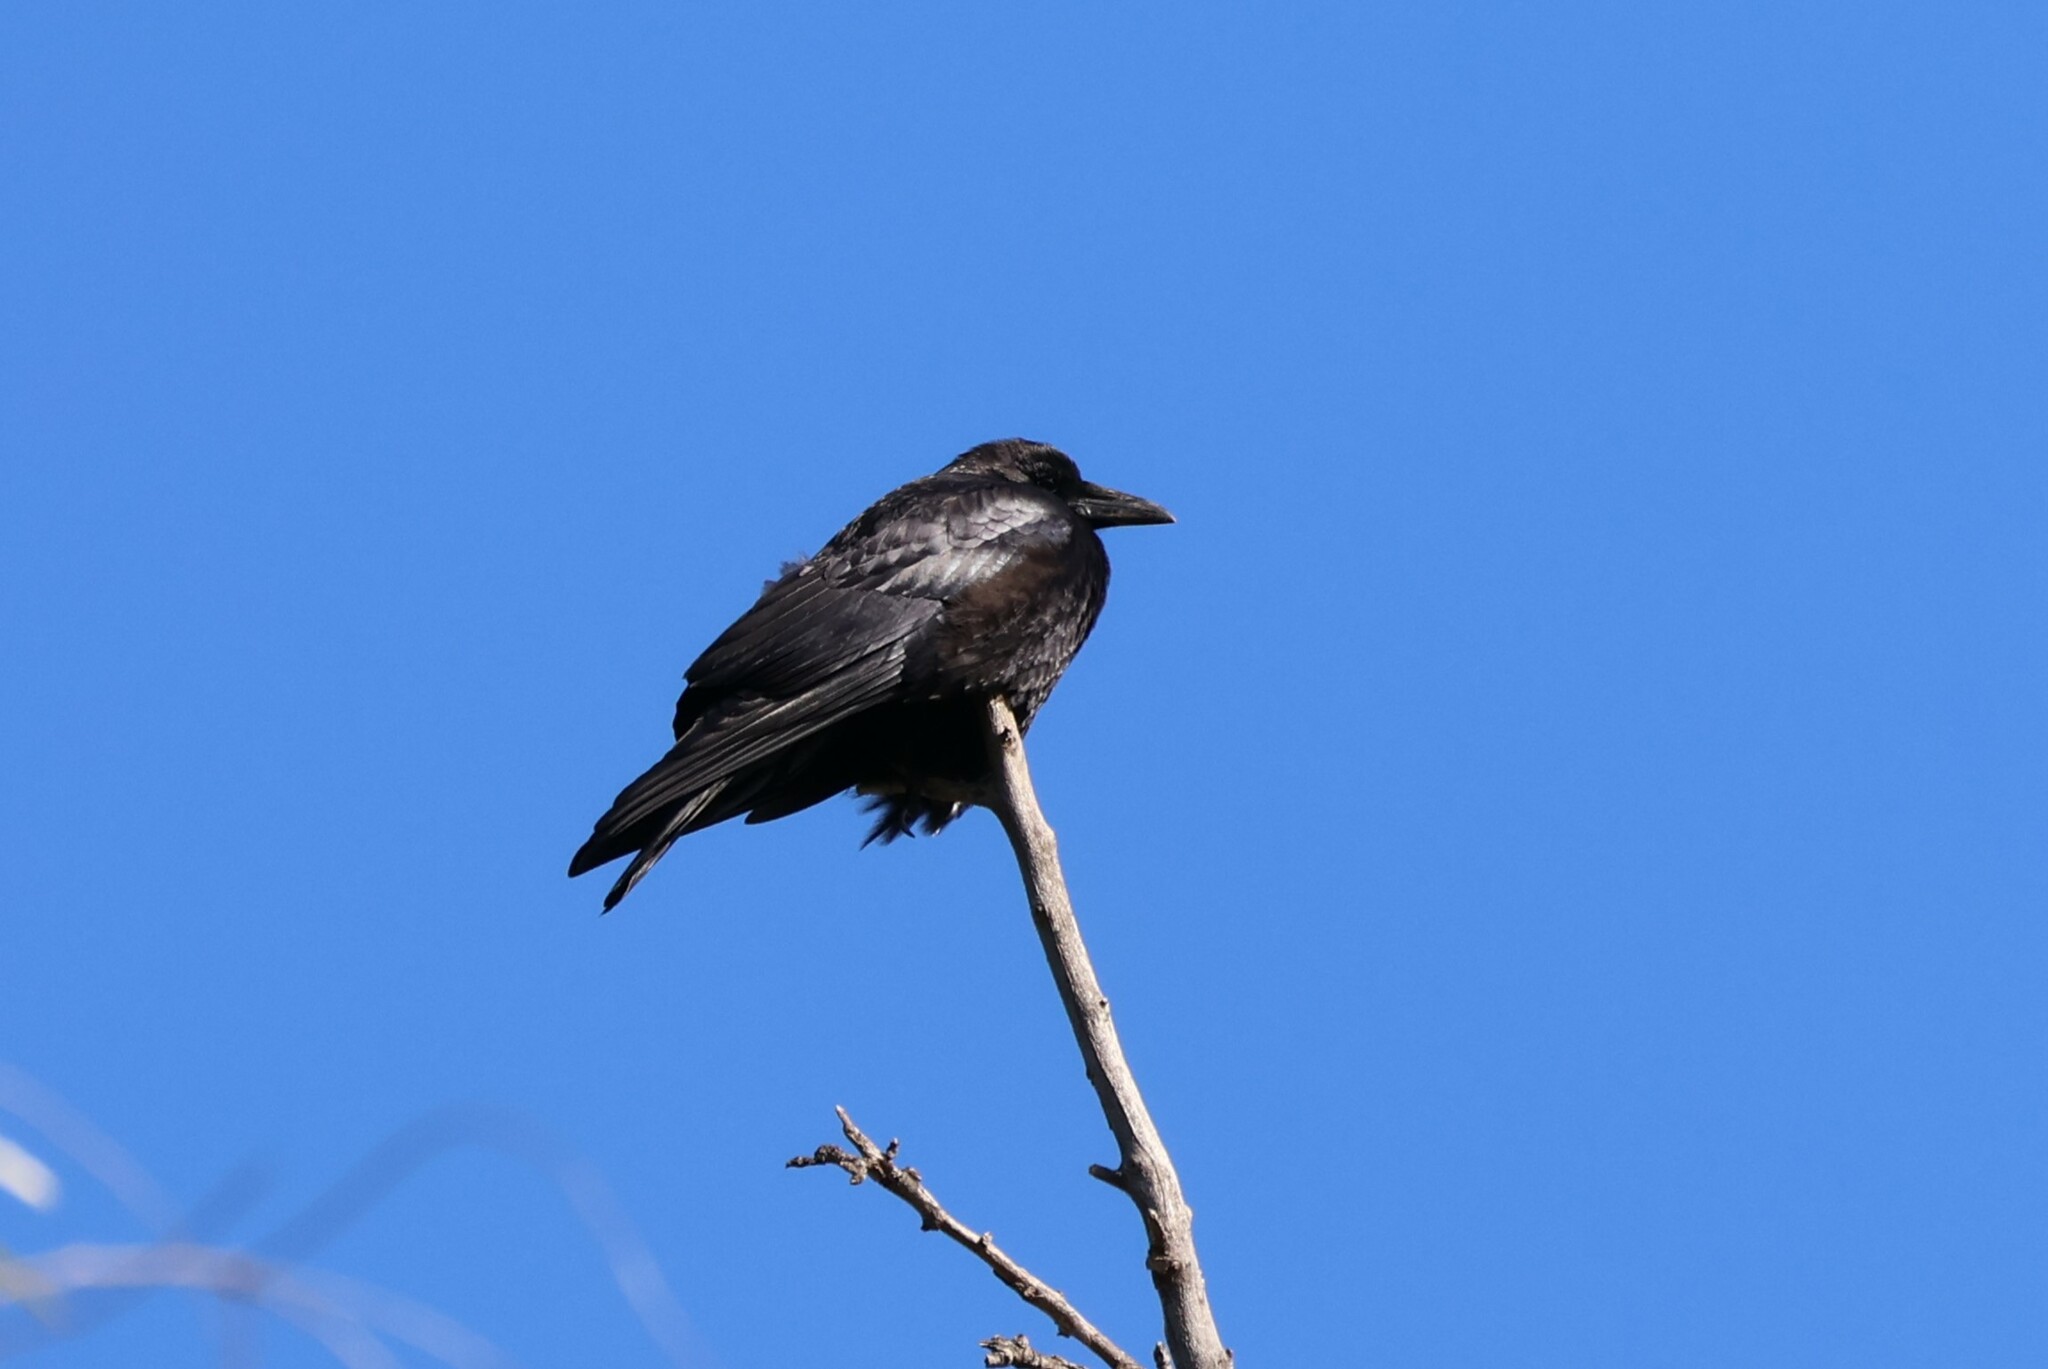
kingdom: Animalia
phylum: Chordata
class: Aves
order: Passeriformes
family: Corvidae
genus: Corvus
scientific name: Corvus corax
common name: Common raven
